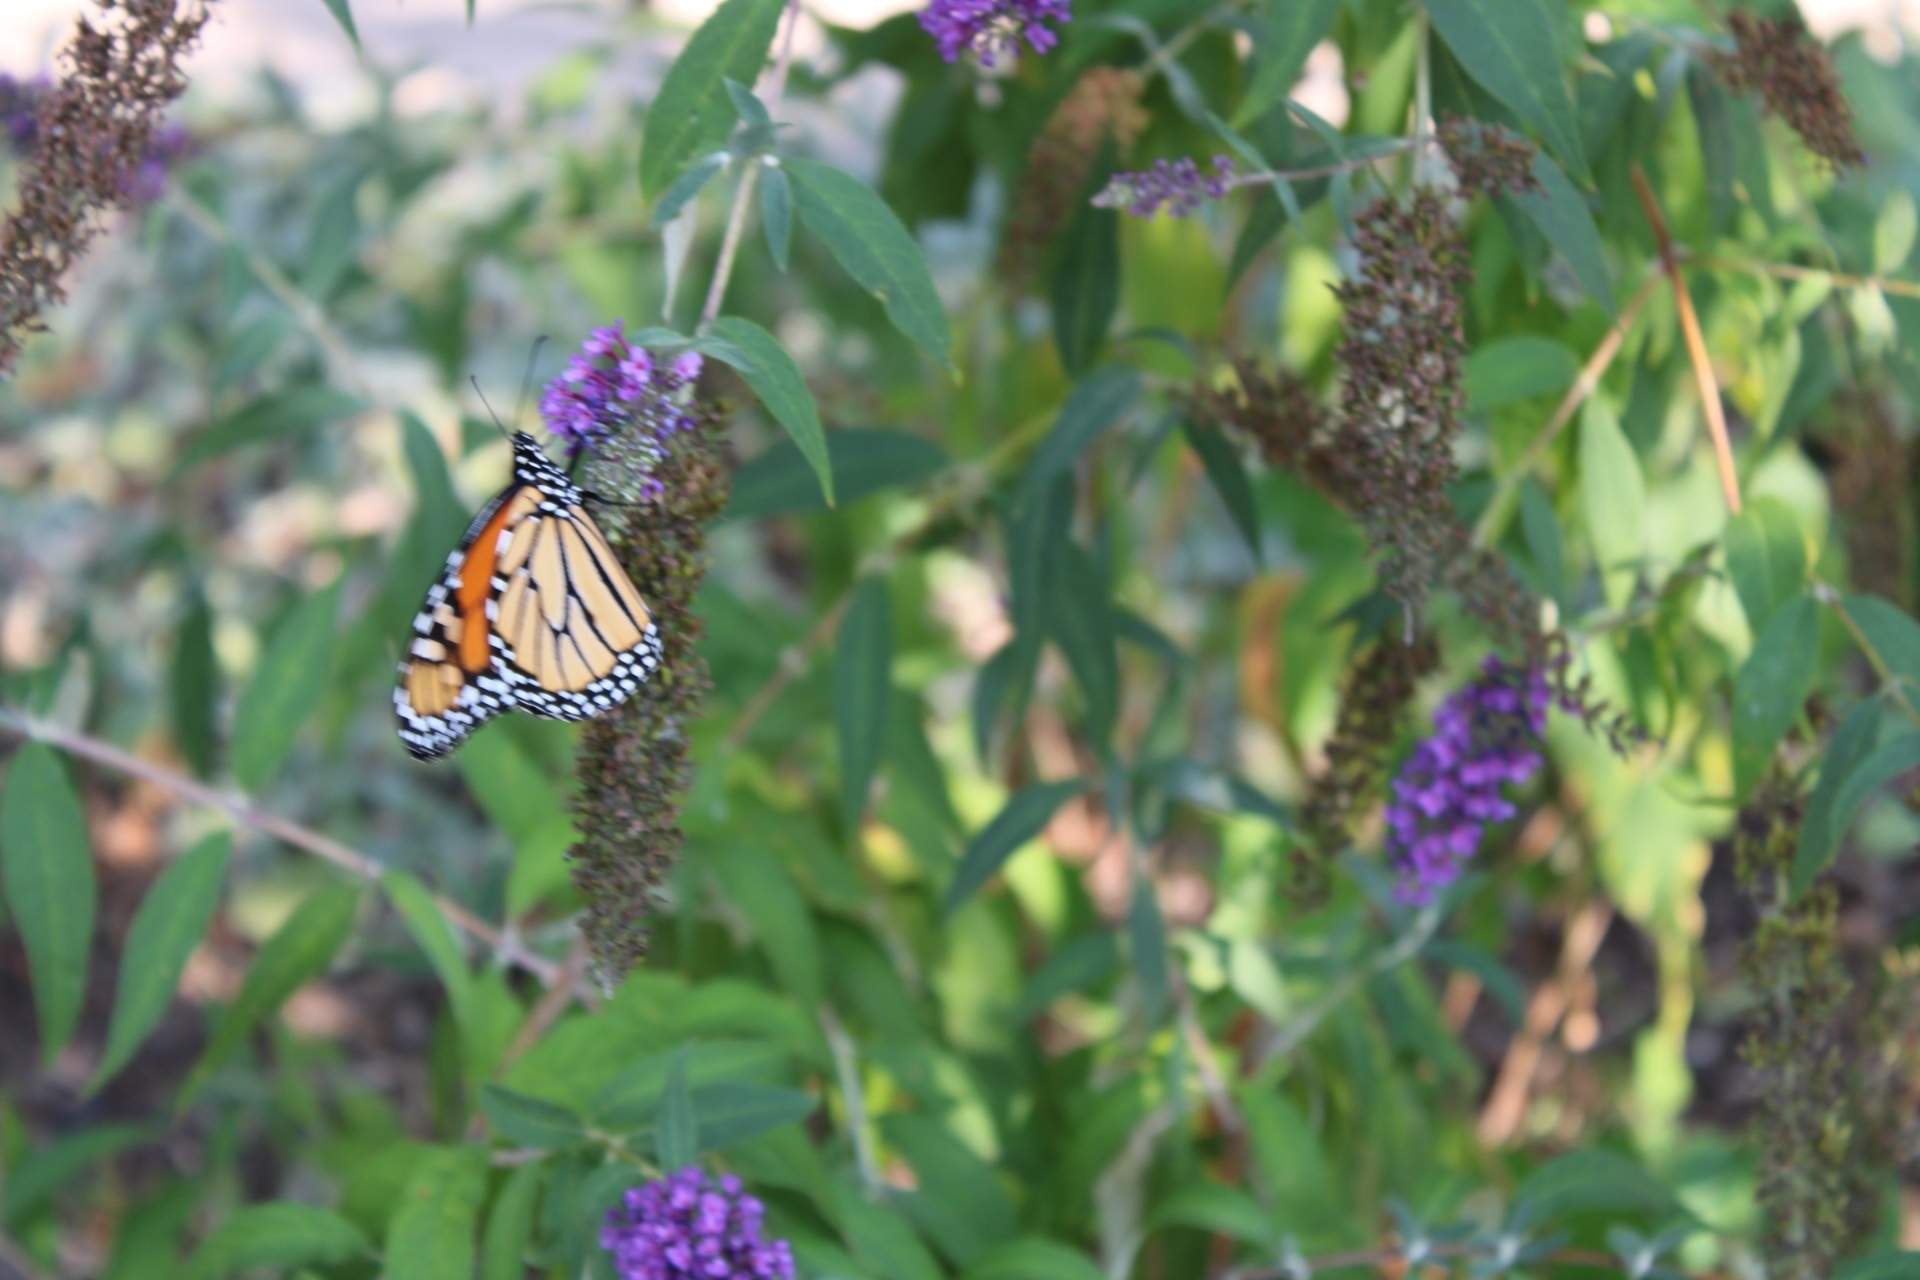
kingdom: Animalia
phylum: Arthropoda
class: Insecta
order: Lepidoptera
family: Nymphalidae
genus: Danaus
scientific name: Danaus plexippus
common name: Monarch
